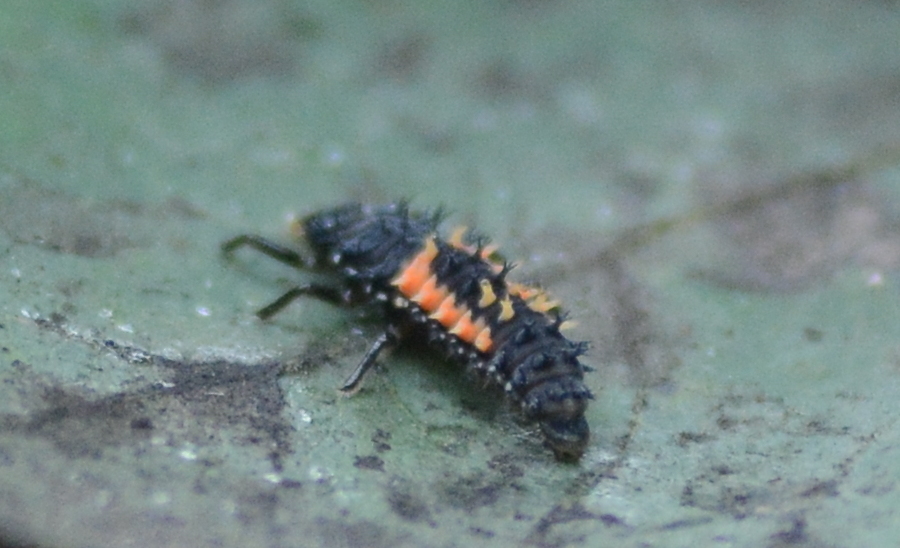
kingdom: Animalia
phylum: Arthropoda
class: Insecta
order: Coleoptera
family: Coccinellidae
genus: Harmonia
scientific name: Harmonia axyridis
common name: Harlequin ladybird
